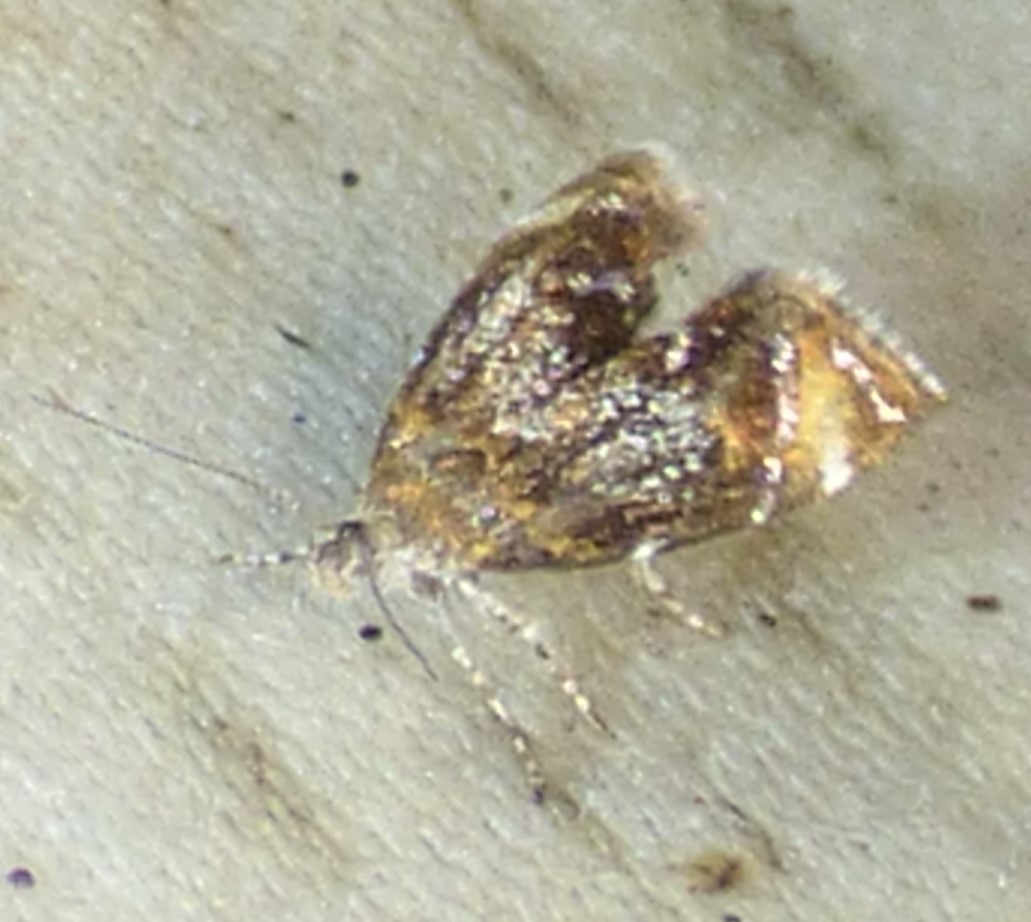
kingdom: Animalia
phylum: Arthropoda
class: Insecta
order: Lepidoptera
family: Choreutidae
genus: Prochoreutis
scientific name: Prochoreutis inflatella
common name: Skullcap skeletonizer moth
